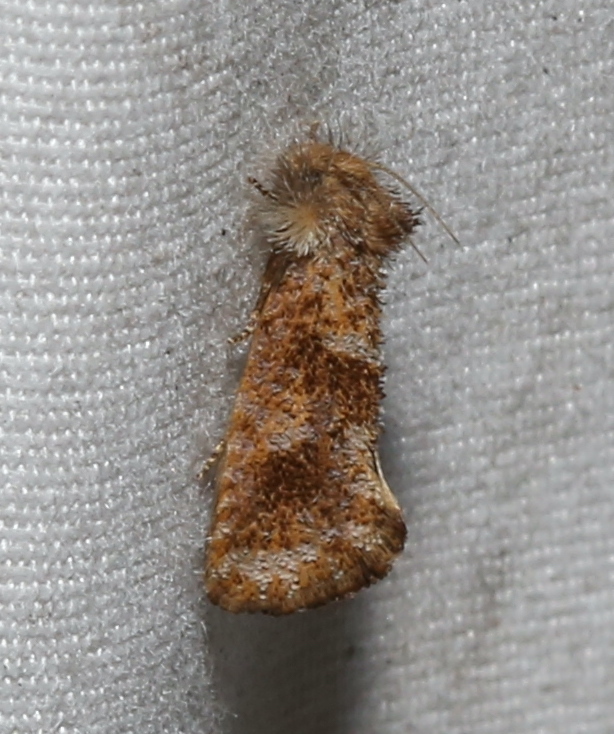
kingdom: Animalia
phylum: Arthropoda
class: Insecta
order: Lepidoptera
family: Tineidae
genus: Acrolophus
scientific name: Acrolophus panamae
